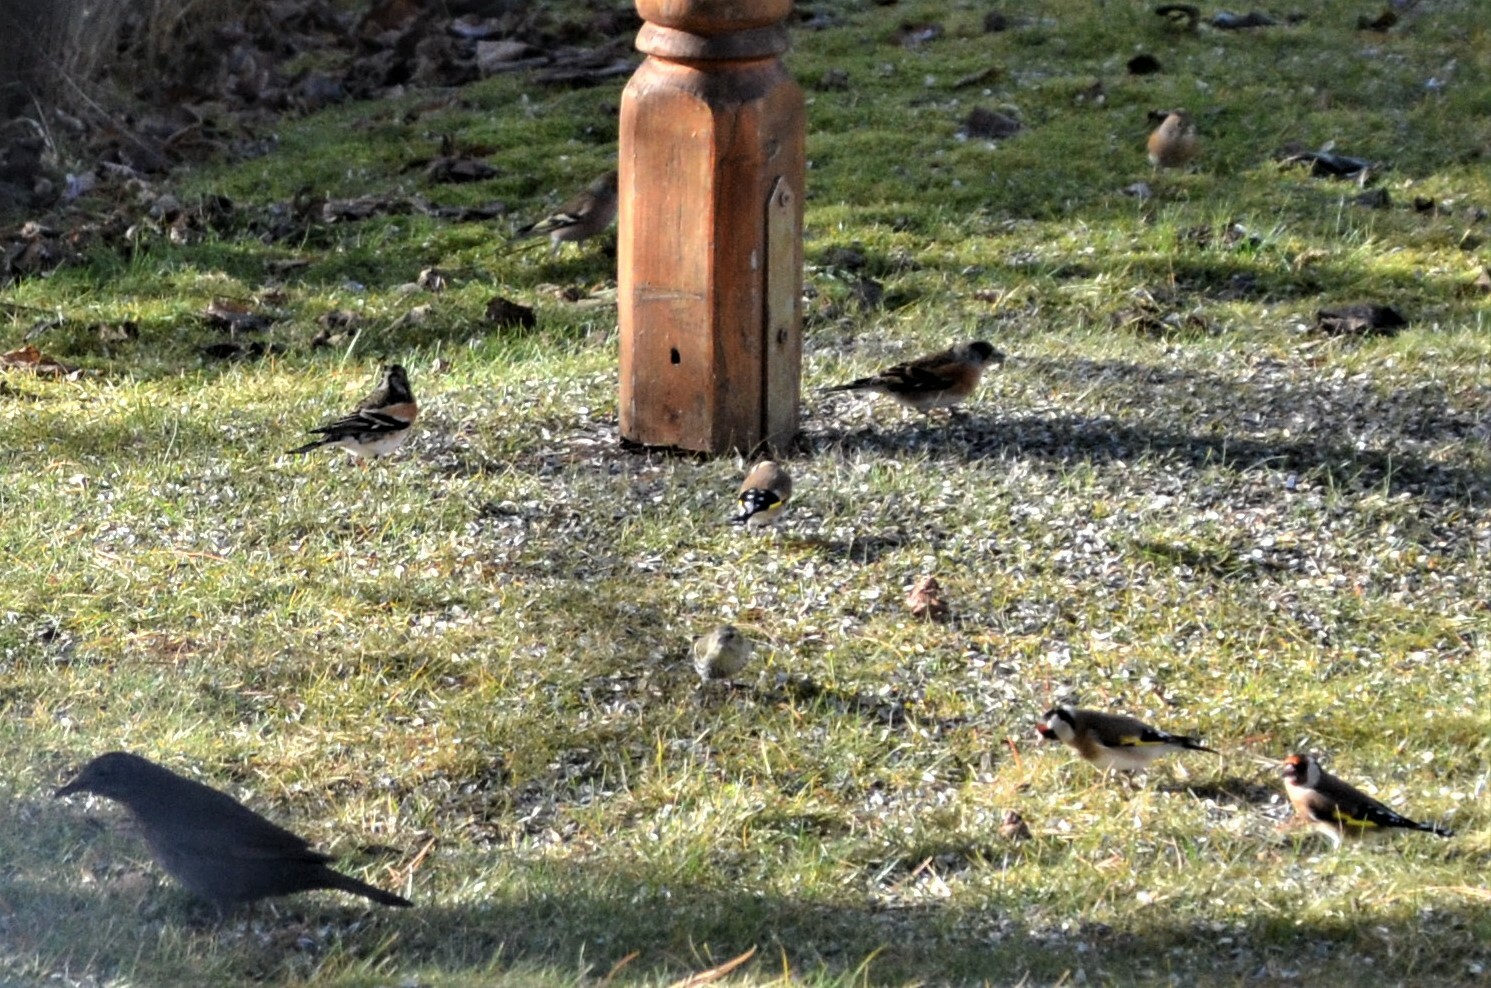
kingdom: Animalia
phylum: Chordata
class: Aves
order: Passeriformes
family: Turdidae
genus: Turdus
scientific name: Turdus merula
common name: Common blackbird
